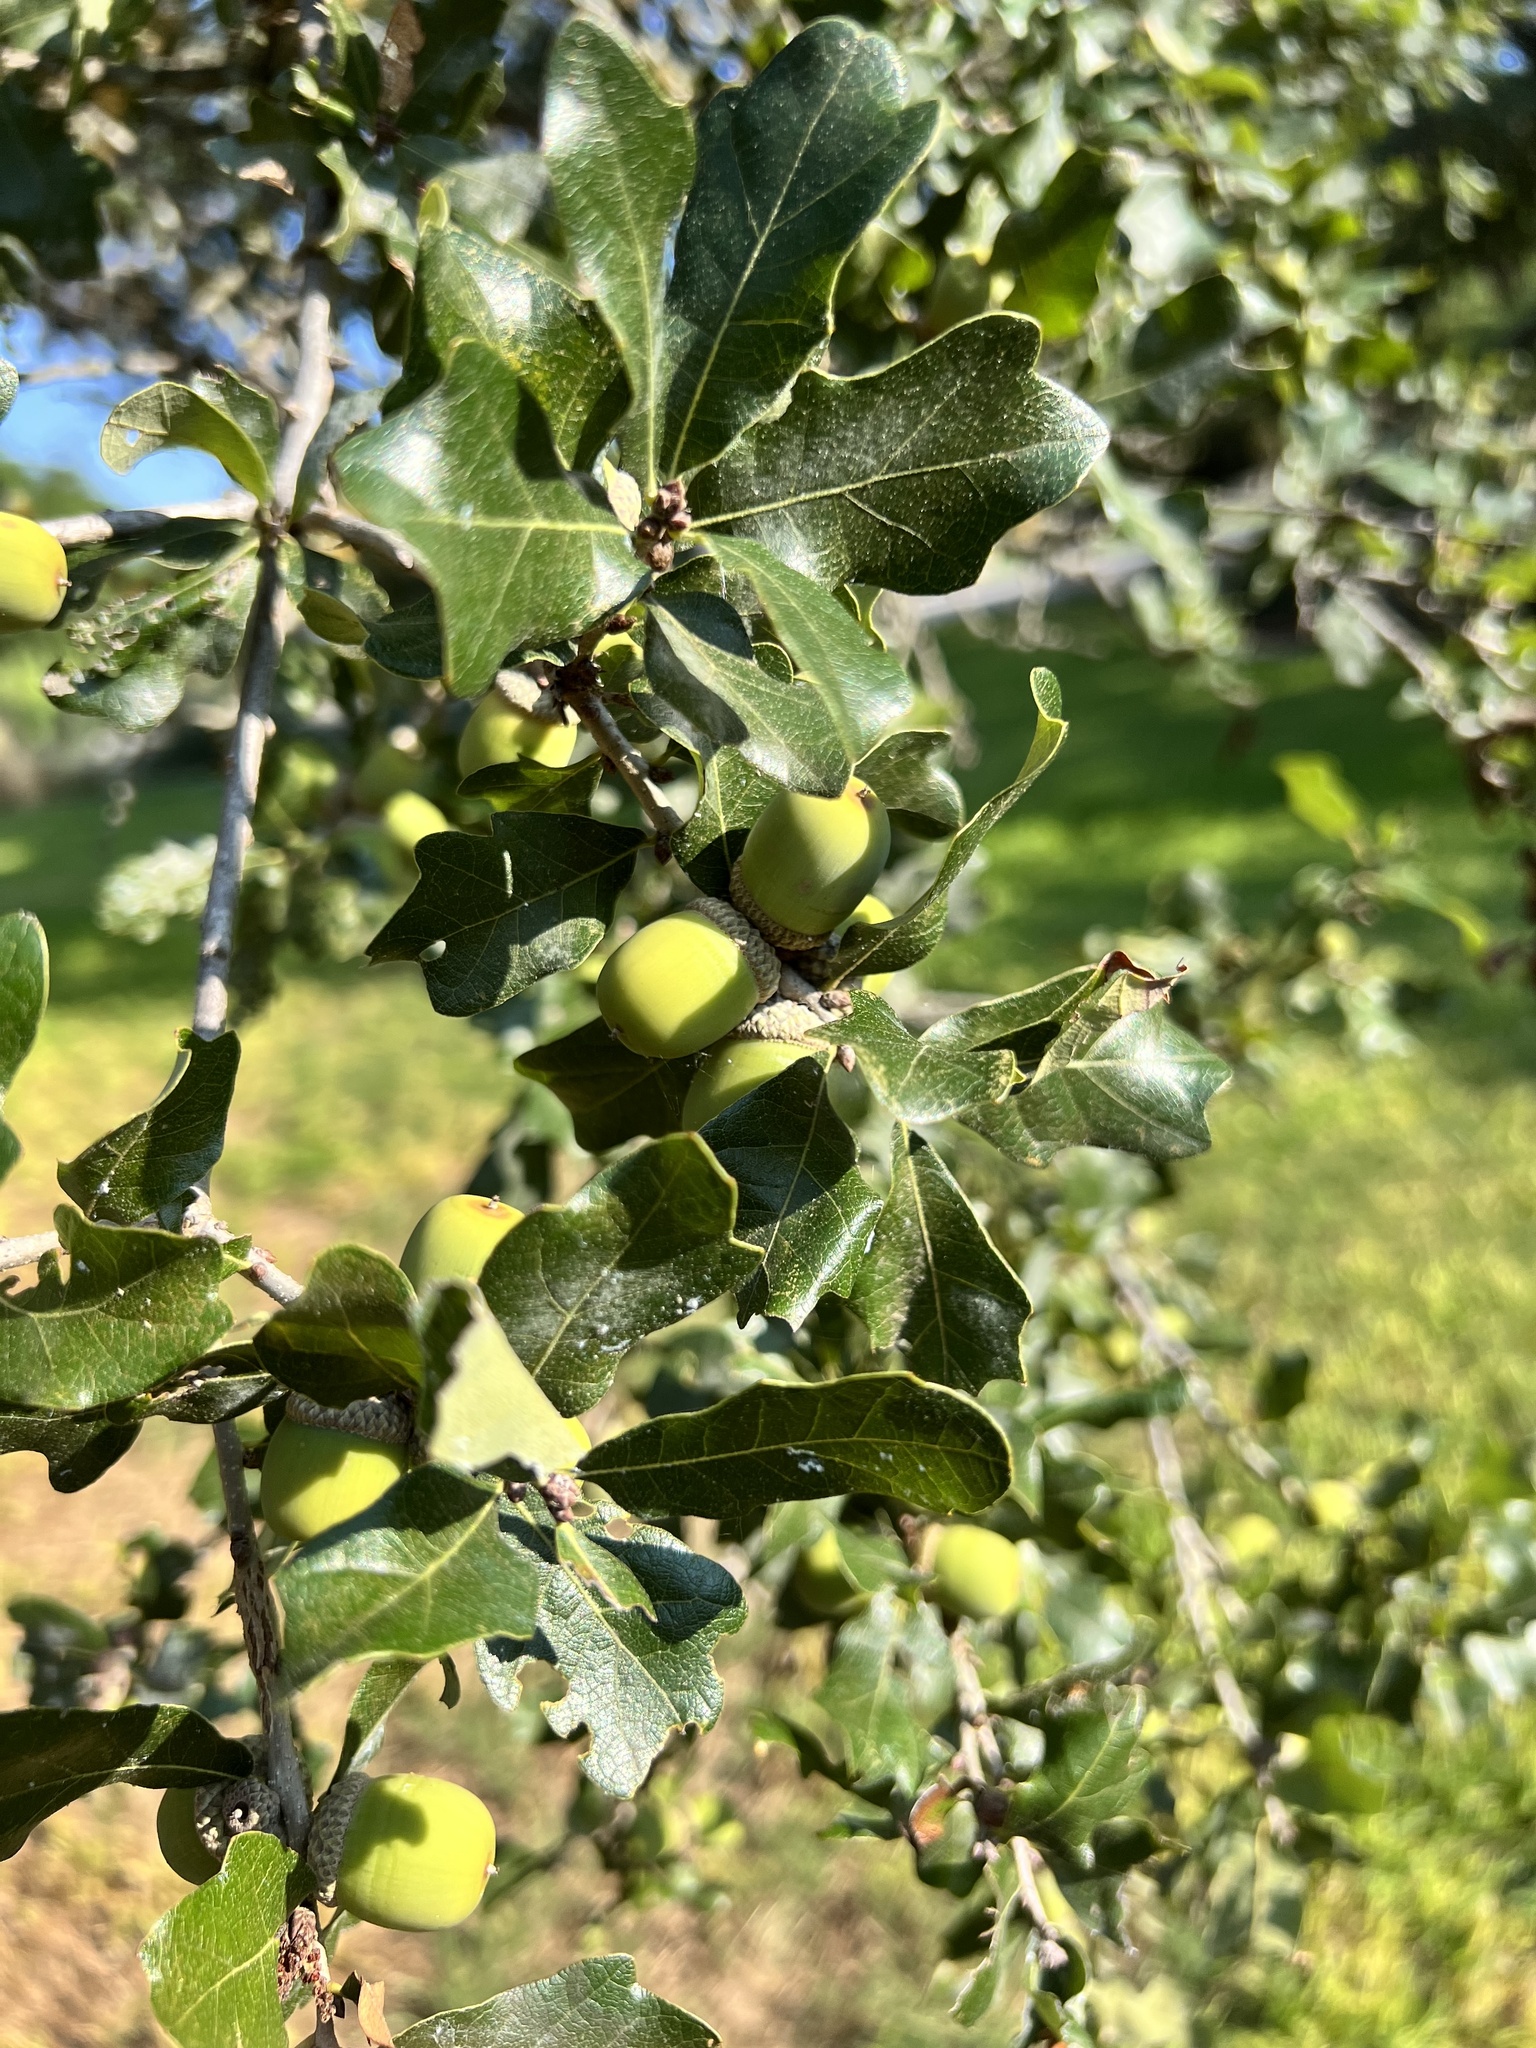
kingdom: Plantae
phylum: Tracheophyta
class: Magnoliopsida
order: Fagales
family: Fagaceae
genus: Quercus
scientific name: Quercus sinuata
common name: Durand oak
